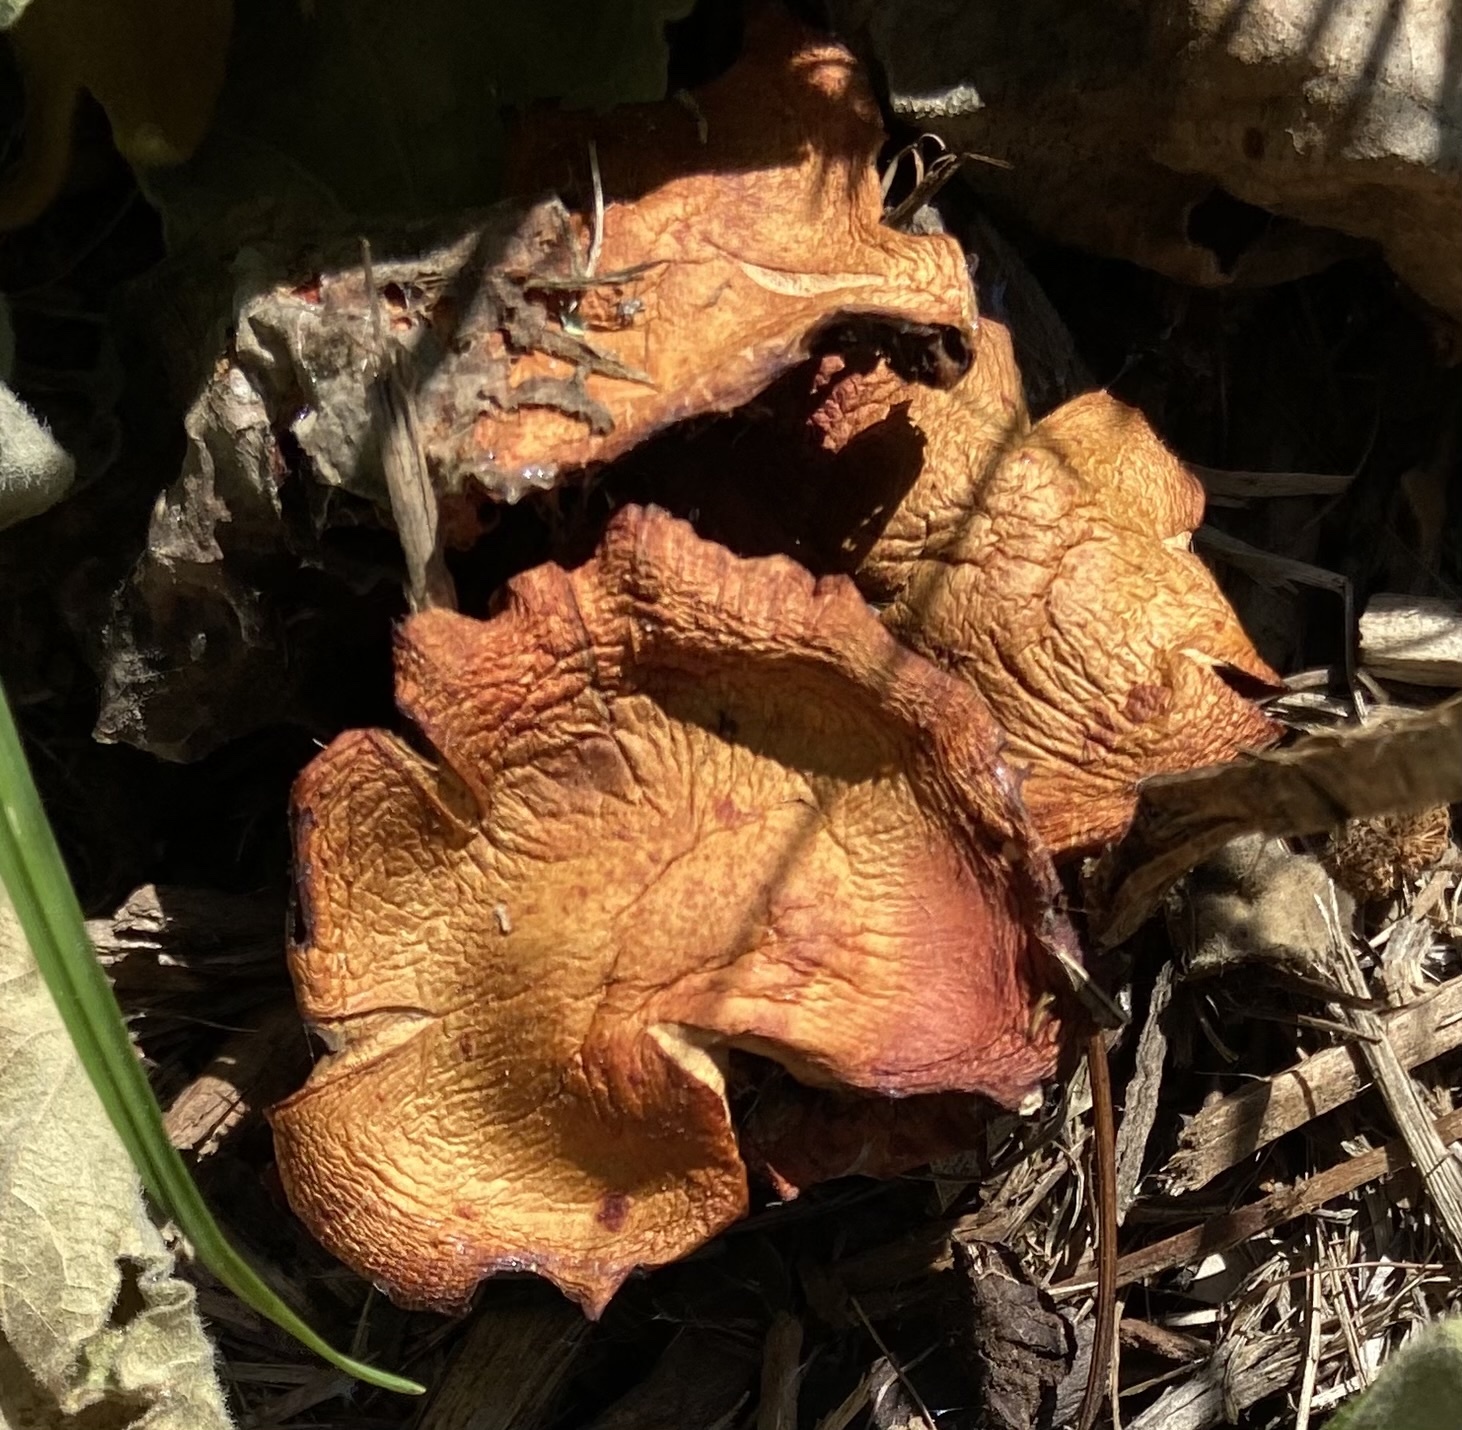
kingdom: Fungi
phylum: Basidiomycota
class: Agaricomycetes
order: Agaricales
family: Strophariaceae
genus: Leratiomyces
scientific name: Leratiomyces ceres
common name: Redlead roundhead
